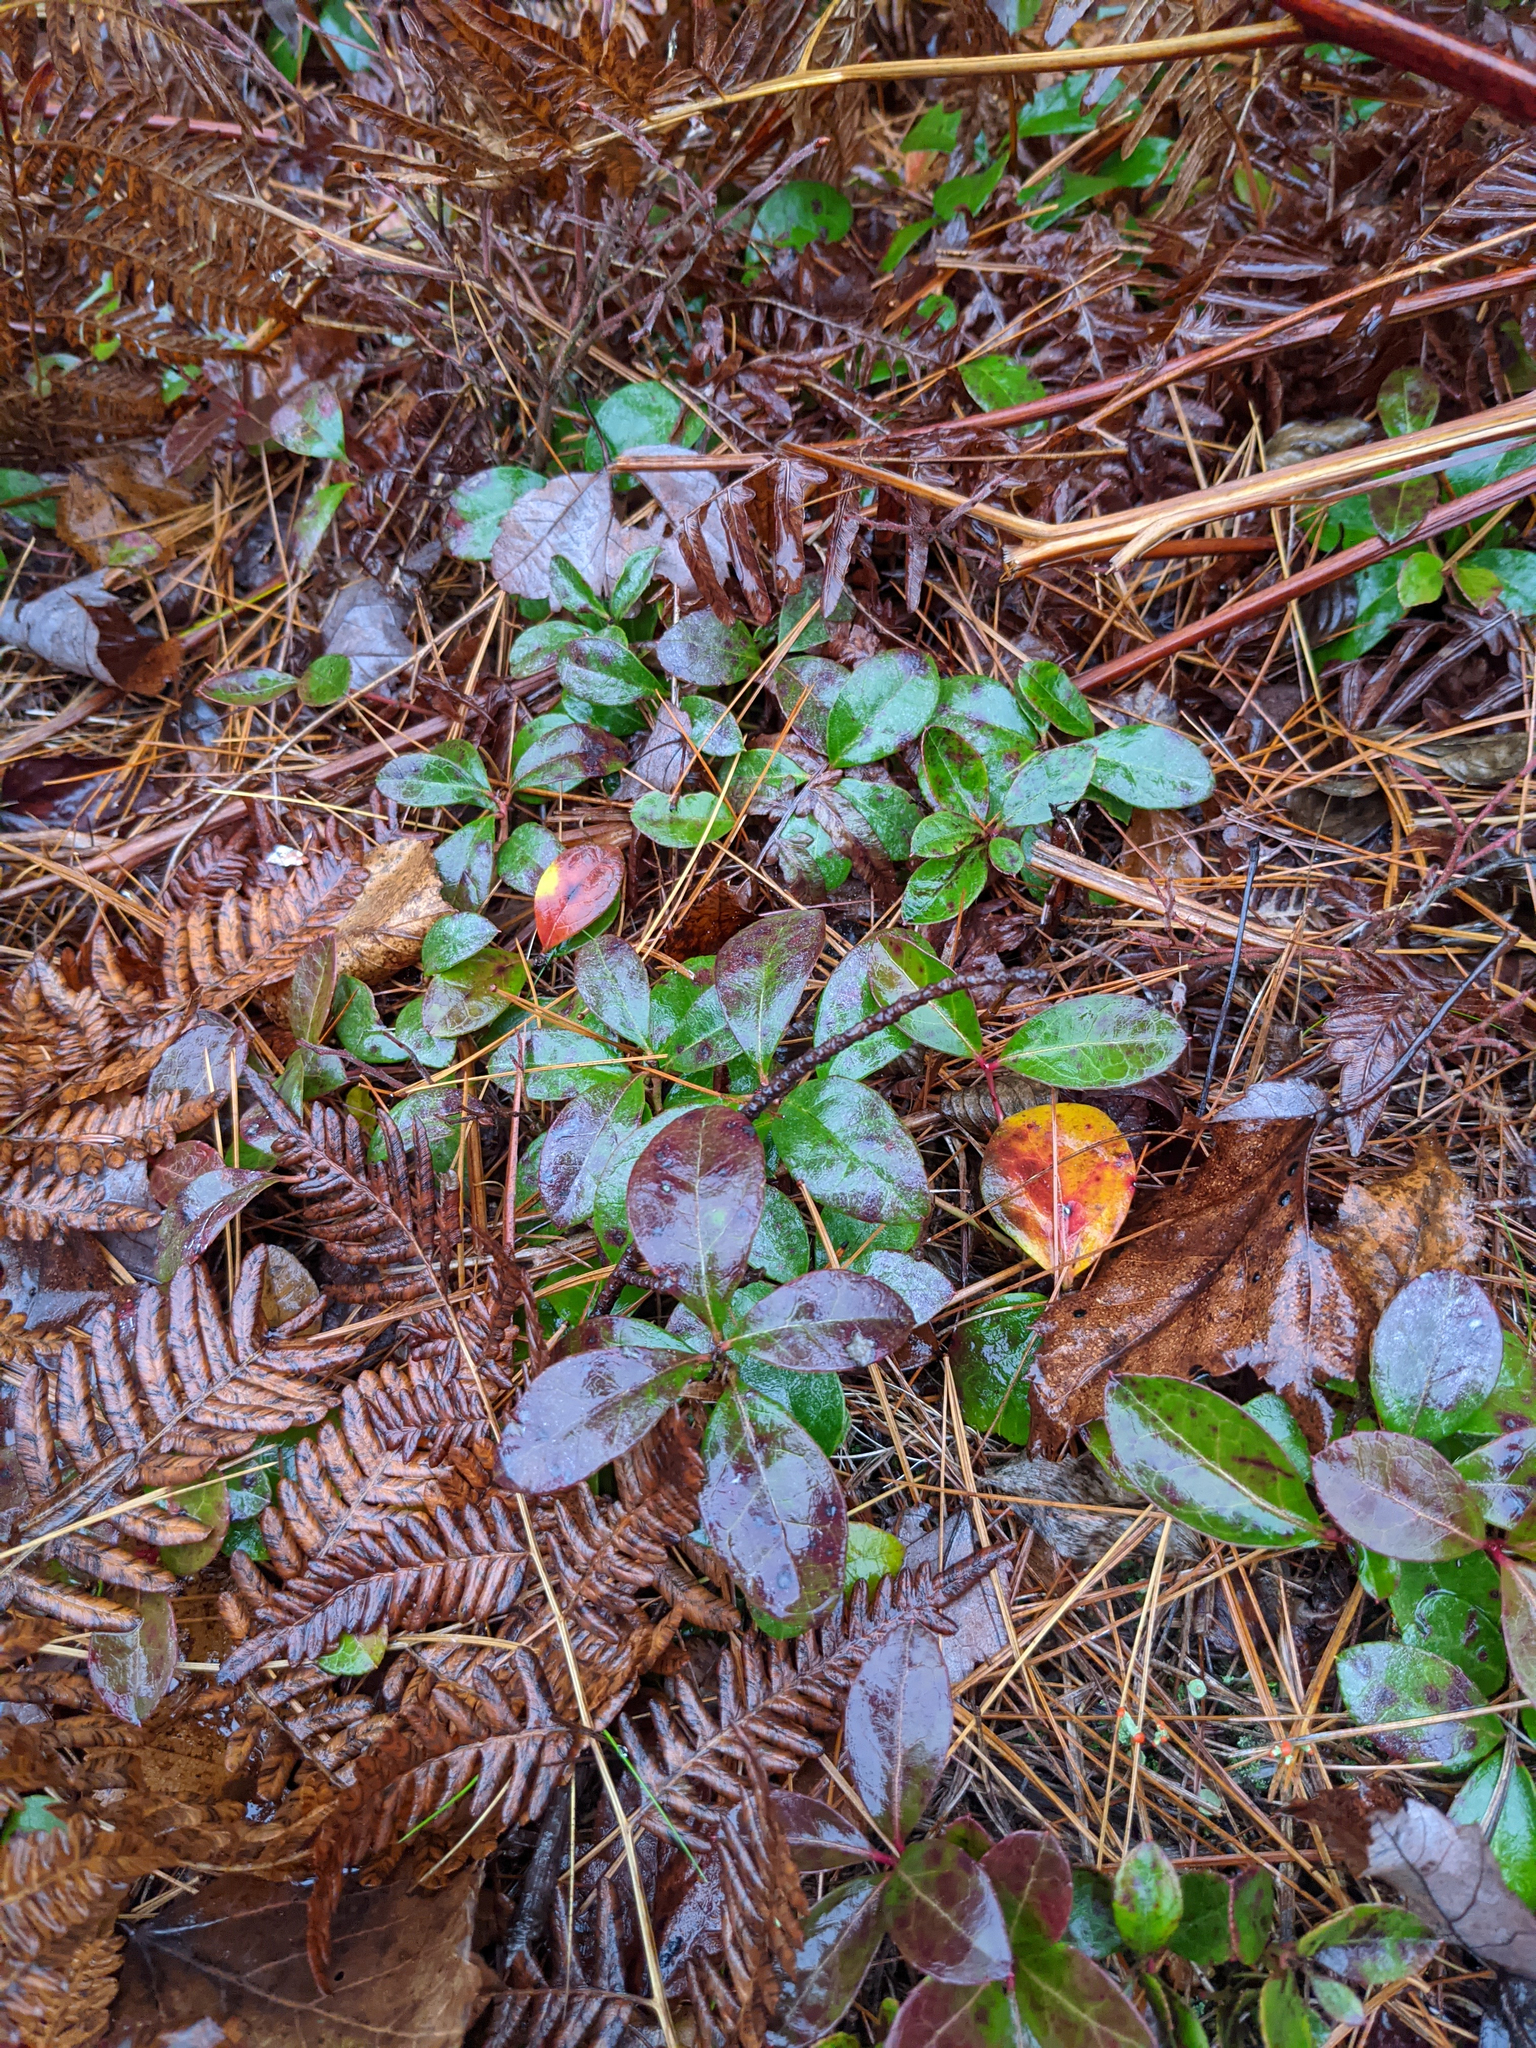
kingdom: Plantae
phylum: Tracheophyta
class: Magnoliopsida
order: Ericales
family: Ericaceae
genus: Gaultheria
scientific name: Gaultheria procumbens
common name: Checkerberry
